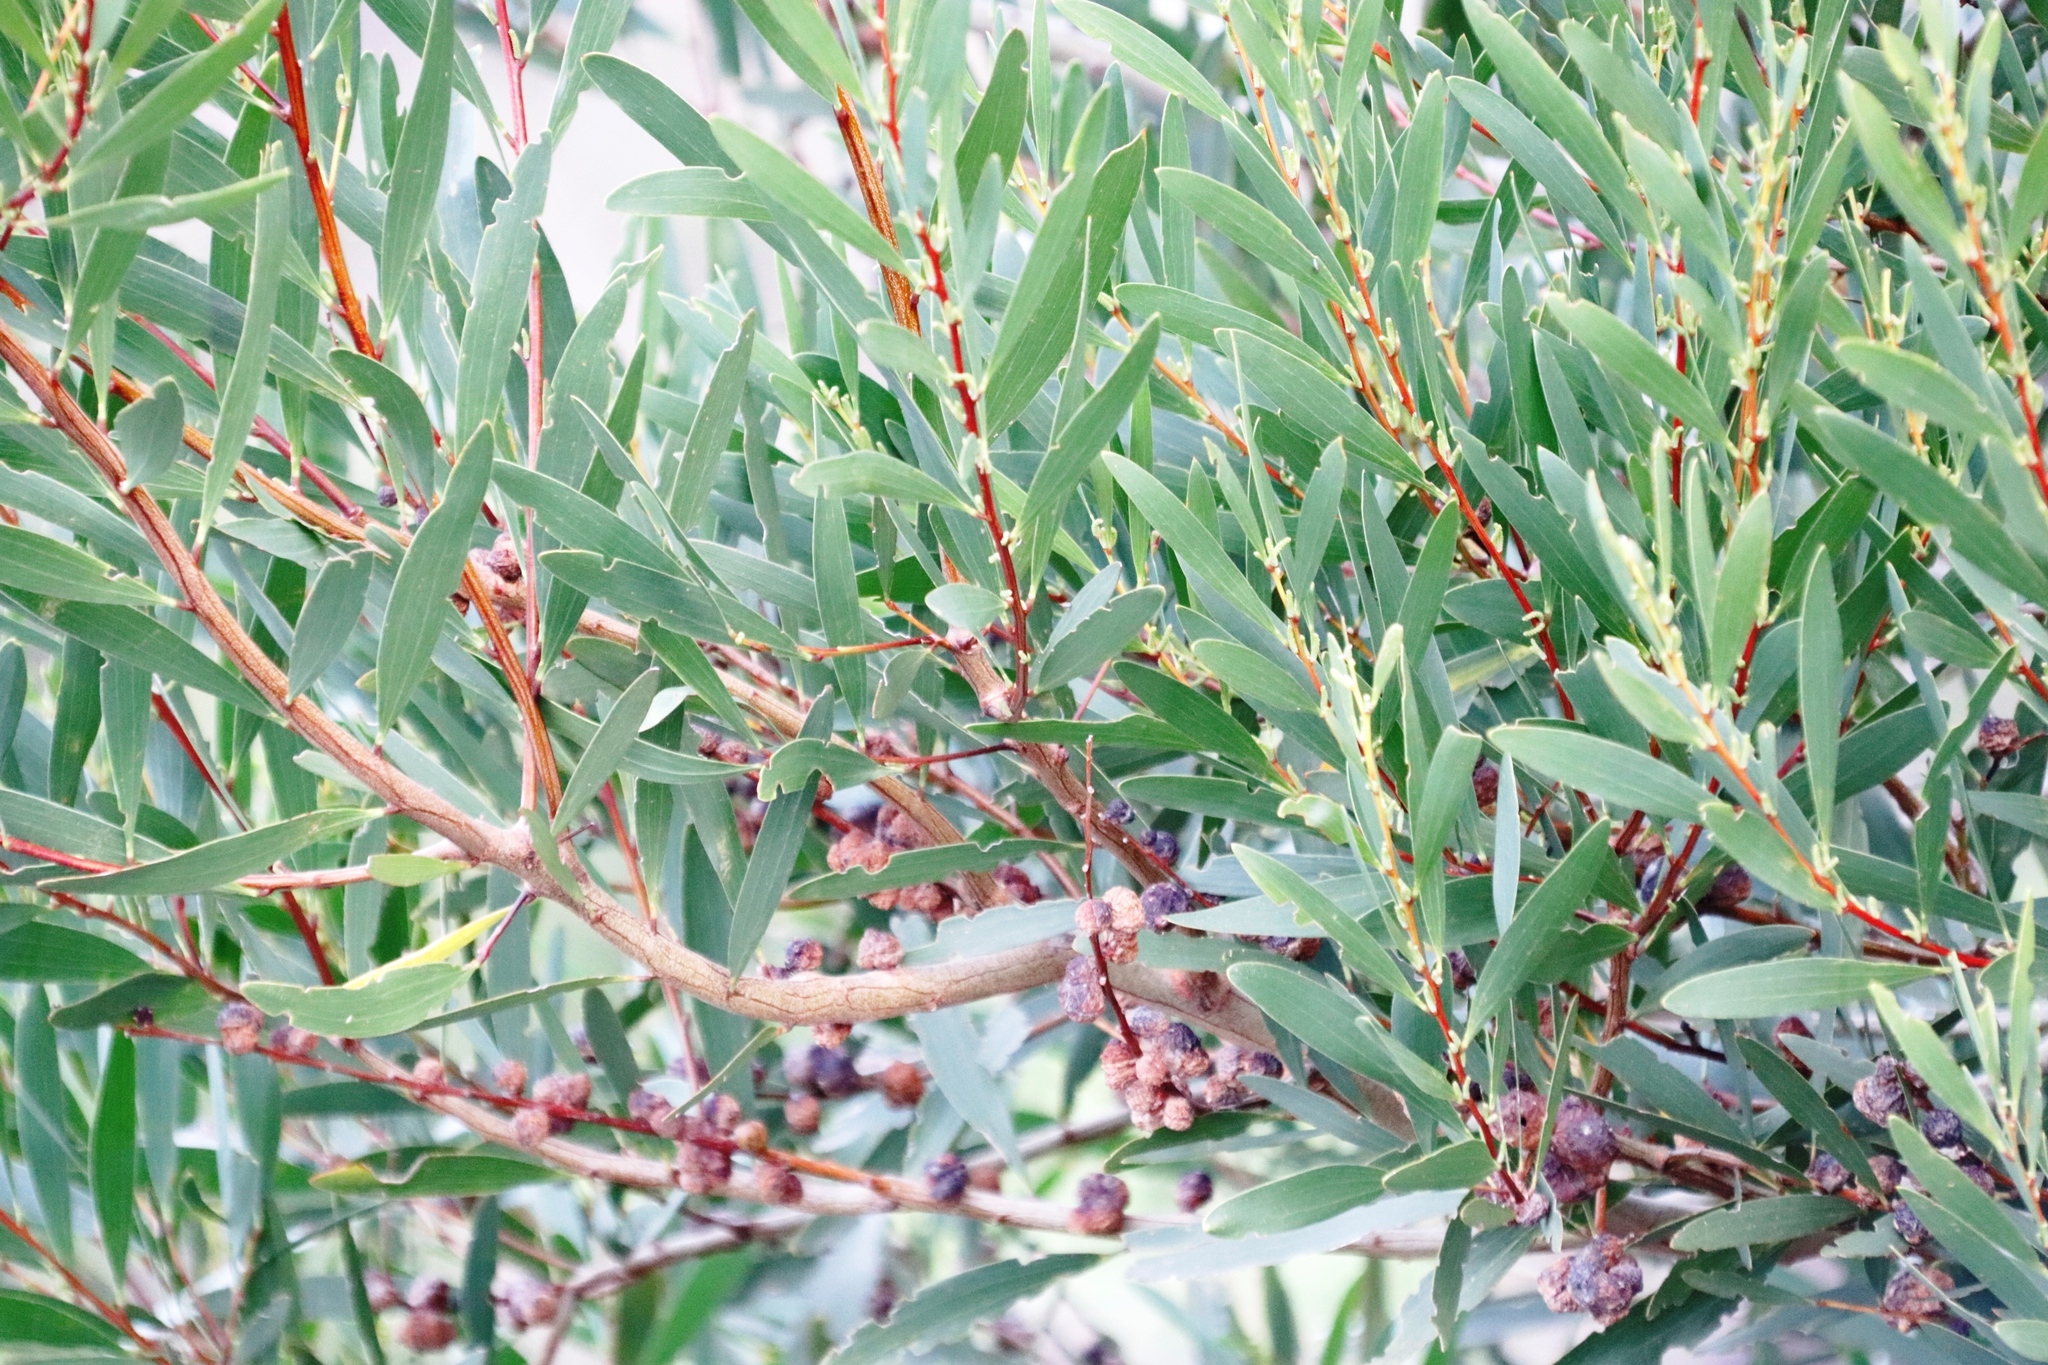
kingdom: Plantae
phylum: Tracheophyta
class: Magnoliopsida
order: Fabales
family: Fabaceae
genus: Acacia
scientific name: Acacia longifolia
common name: Sydney golden wattle
